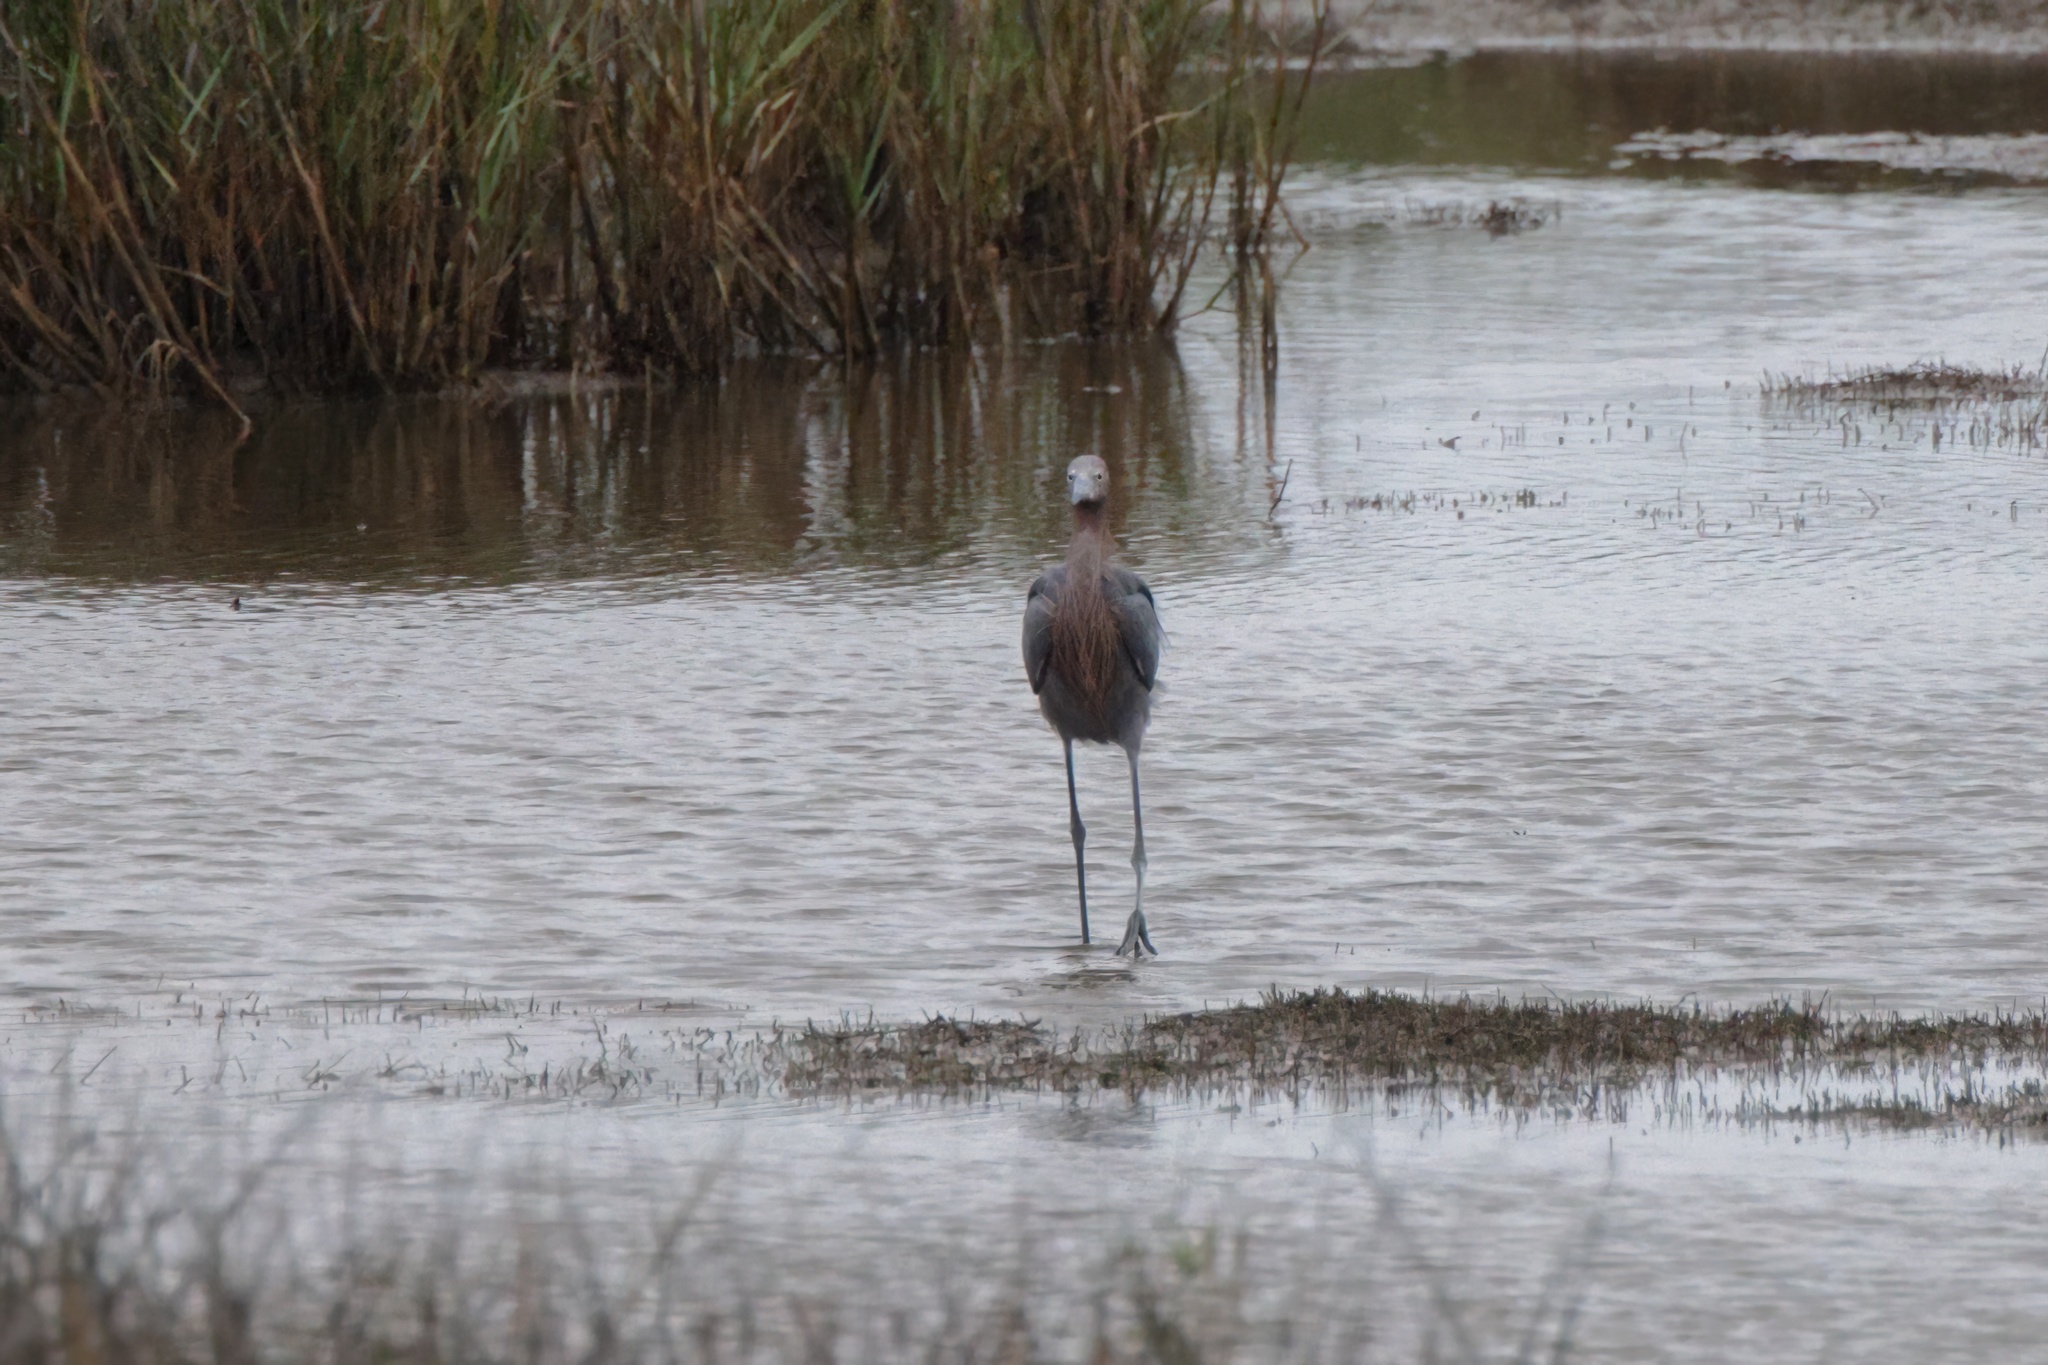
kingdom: Animalia
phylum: Chordata
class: Aves
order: Pelecaniformes
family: Ardeidae
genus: Egretta
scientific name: Egretta rufescens
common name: Reddish egret
